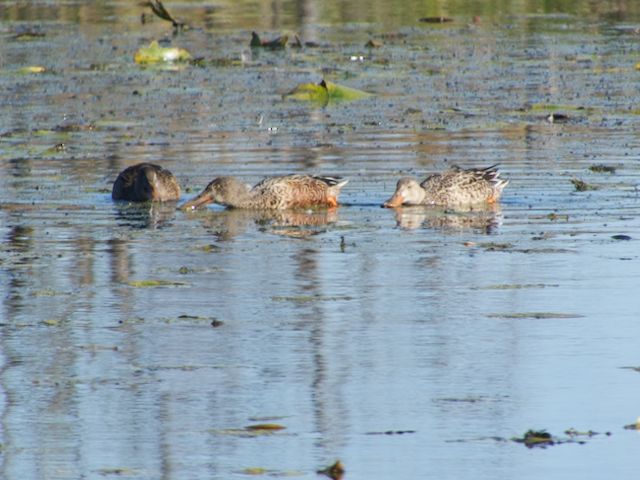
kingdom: Animalia
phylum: Chordata
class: Aves
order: Anseriformes
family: Anatidae
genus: Spatula
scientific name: Spatula clypeata
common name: Northern shoveler
